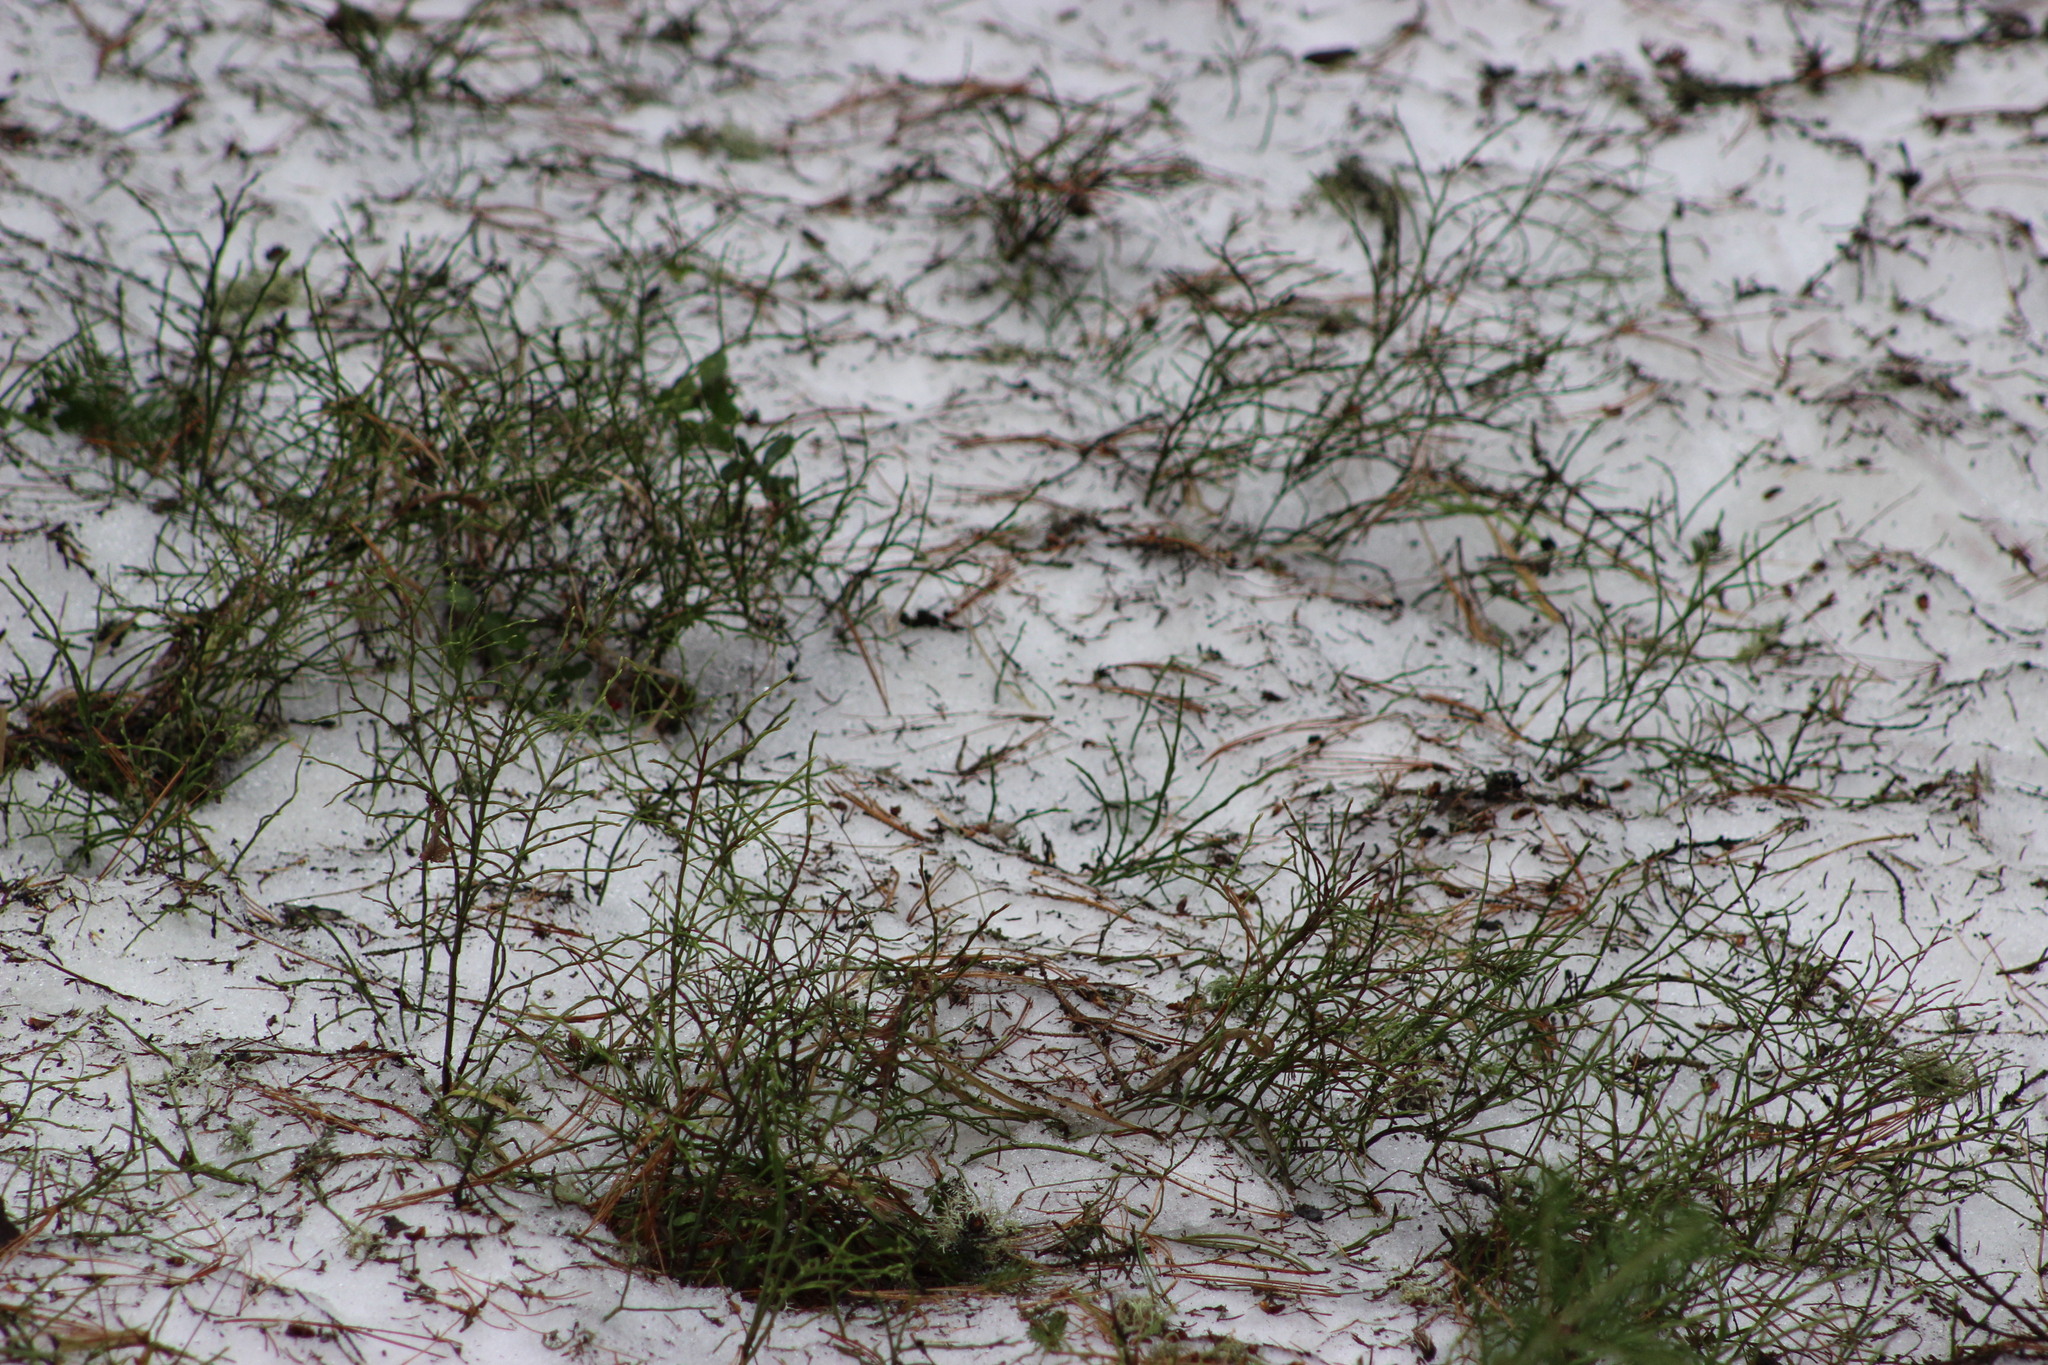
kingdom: Plantae
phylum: Tracheophyta
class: Magnoliopsida
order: Ericales
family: Ericaceae
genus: Vaccinium
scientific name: Vaccinium myrtillus
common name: Bilberry
